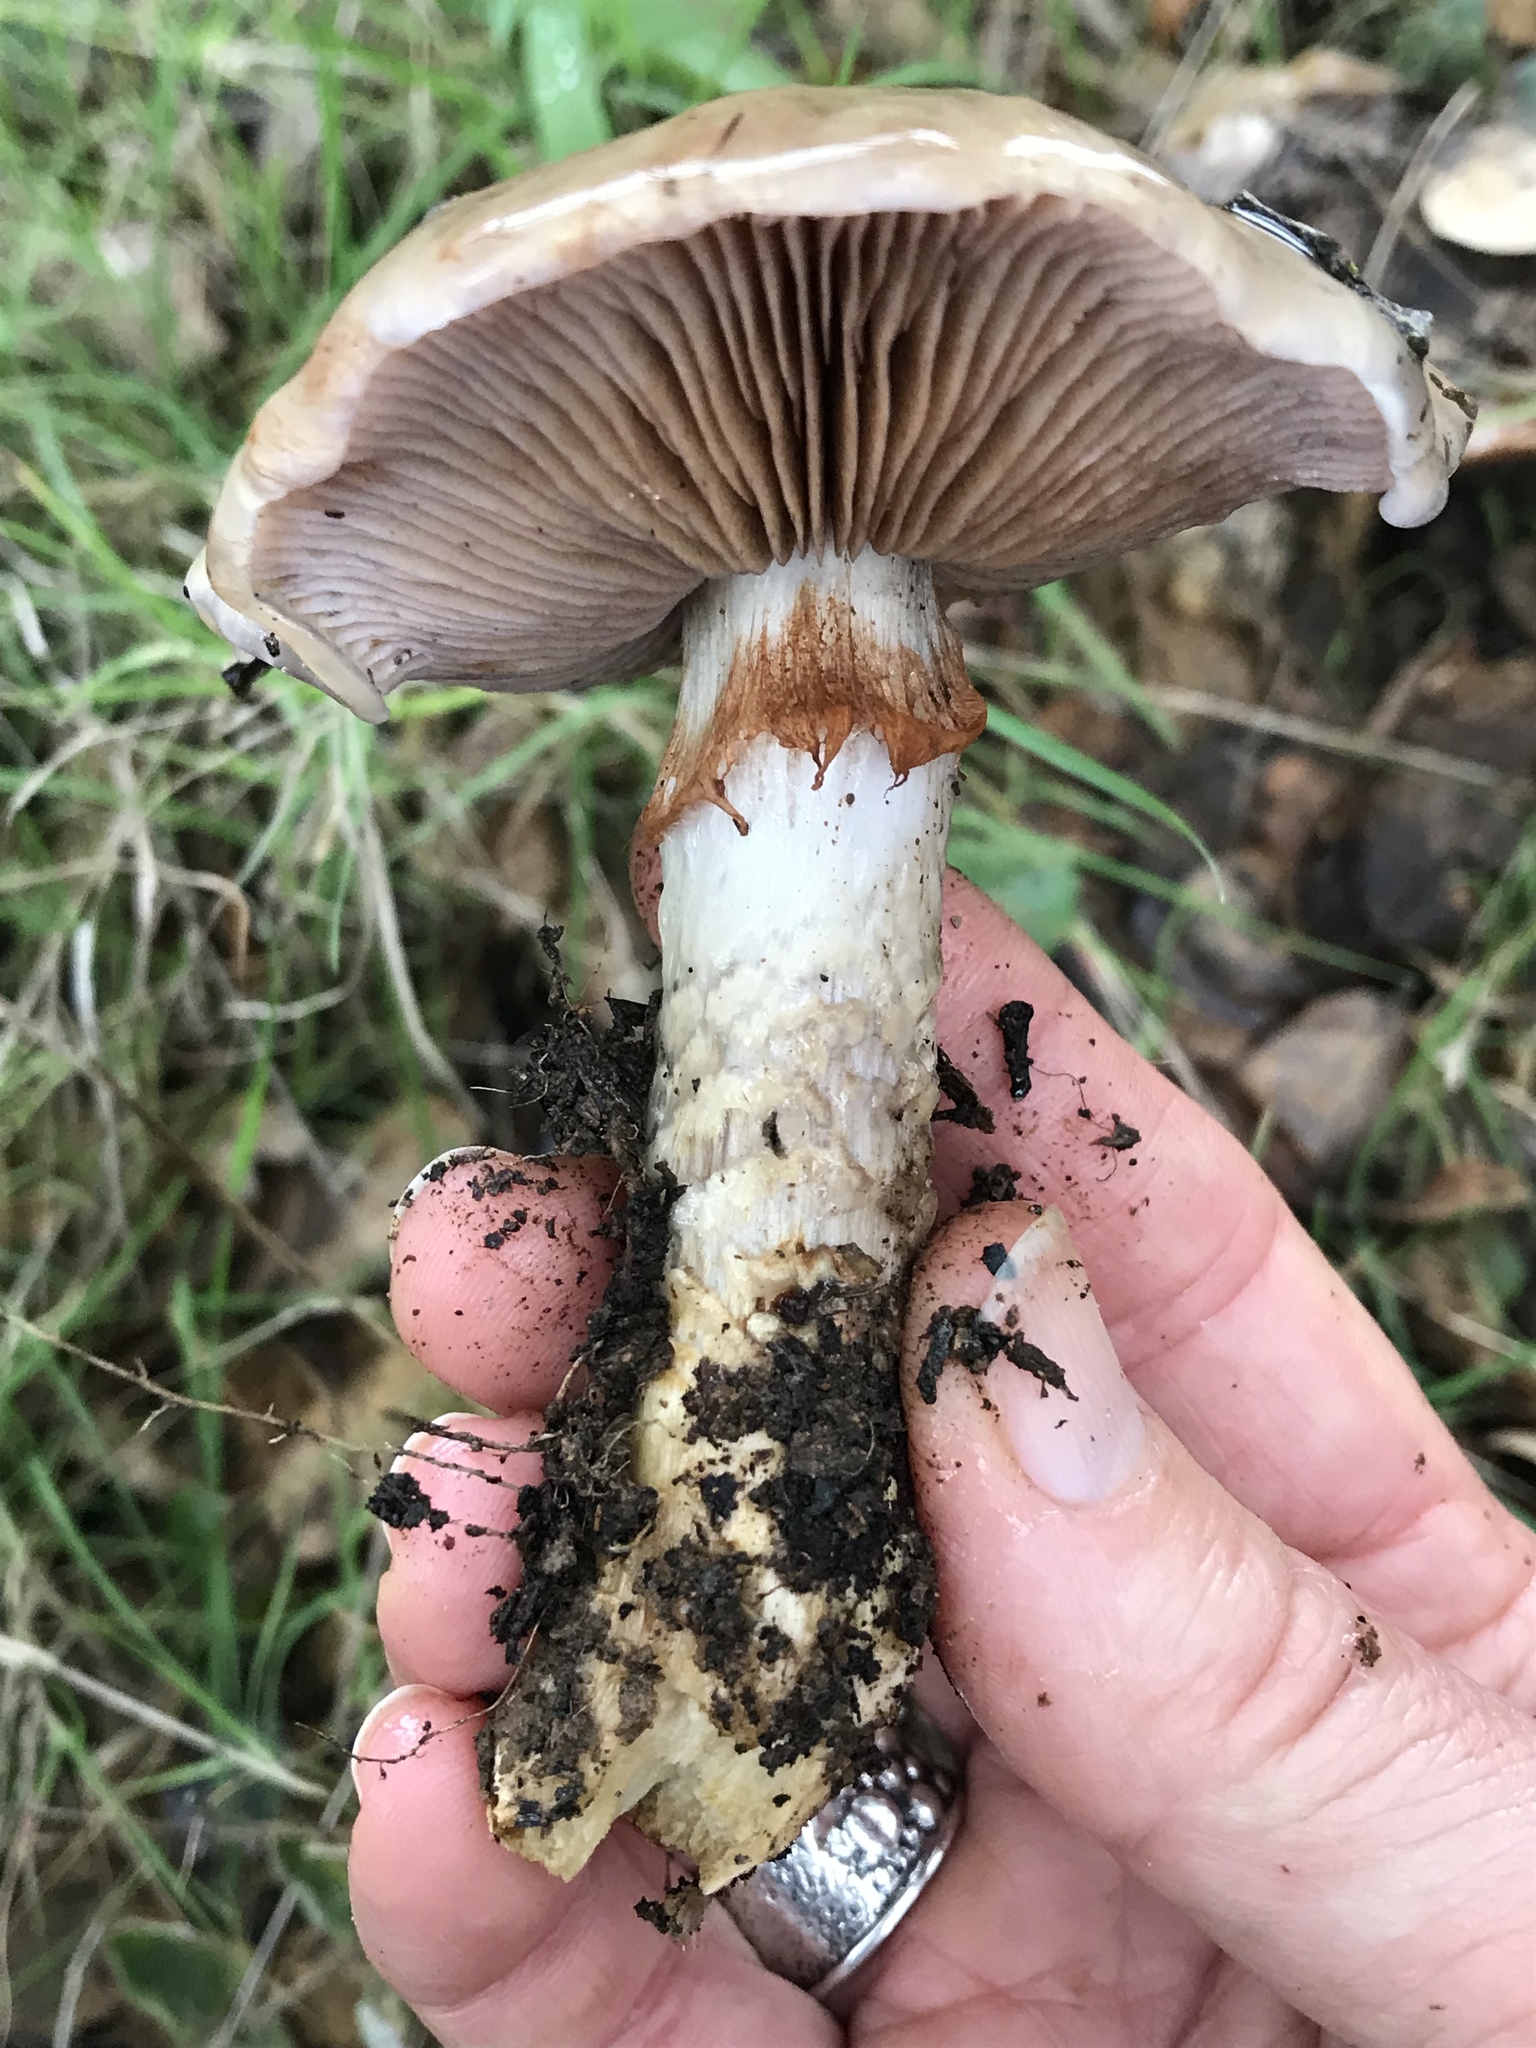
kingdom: Fungi
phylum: Basidiomycota
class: Agaricomycetes
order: Agaricales
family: Cortinariaceae
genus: Cortinarius
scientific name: Cortinarius glutinosoarmillatus
